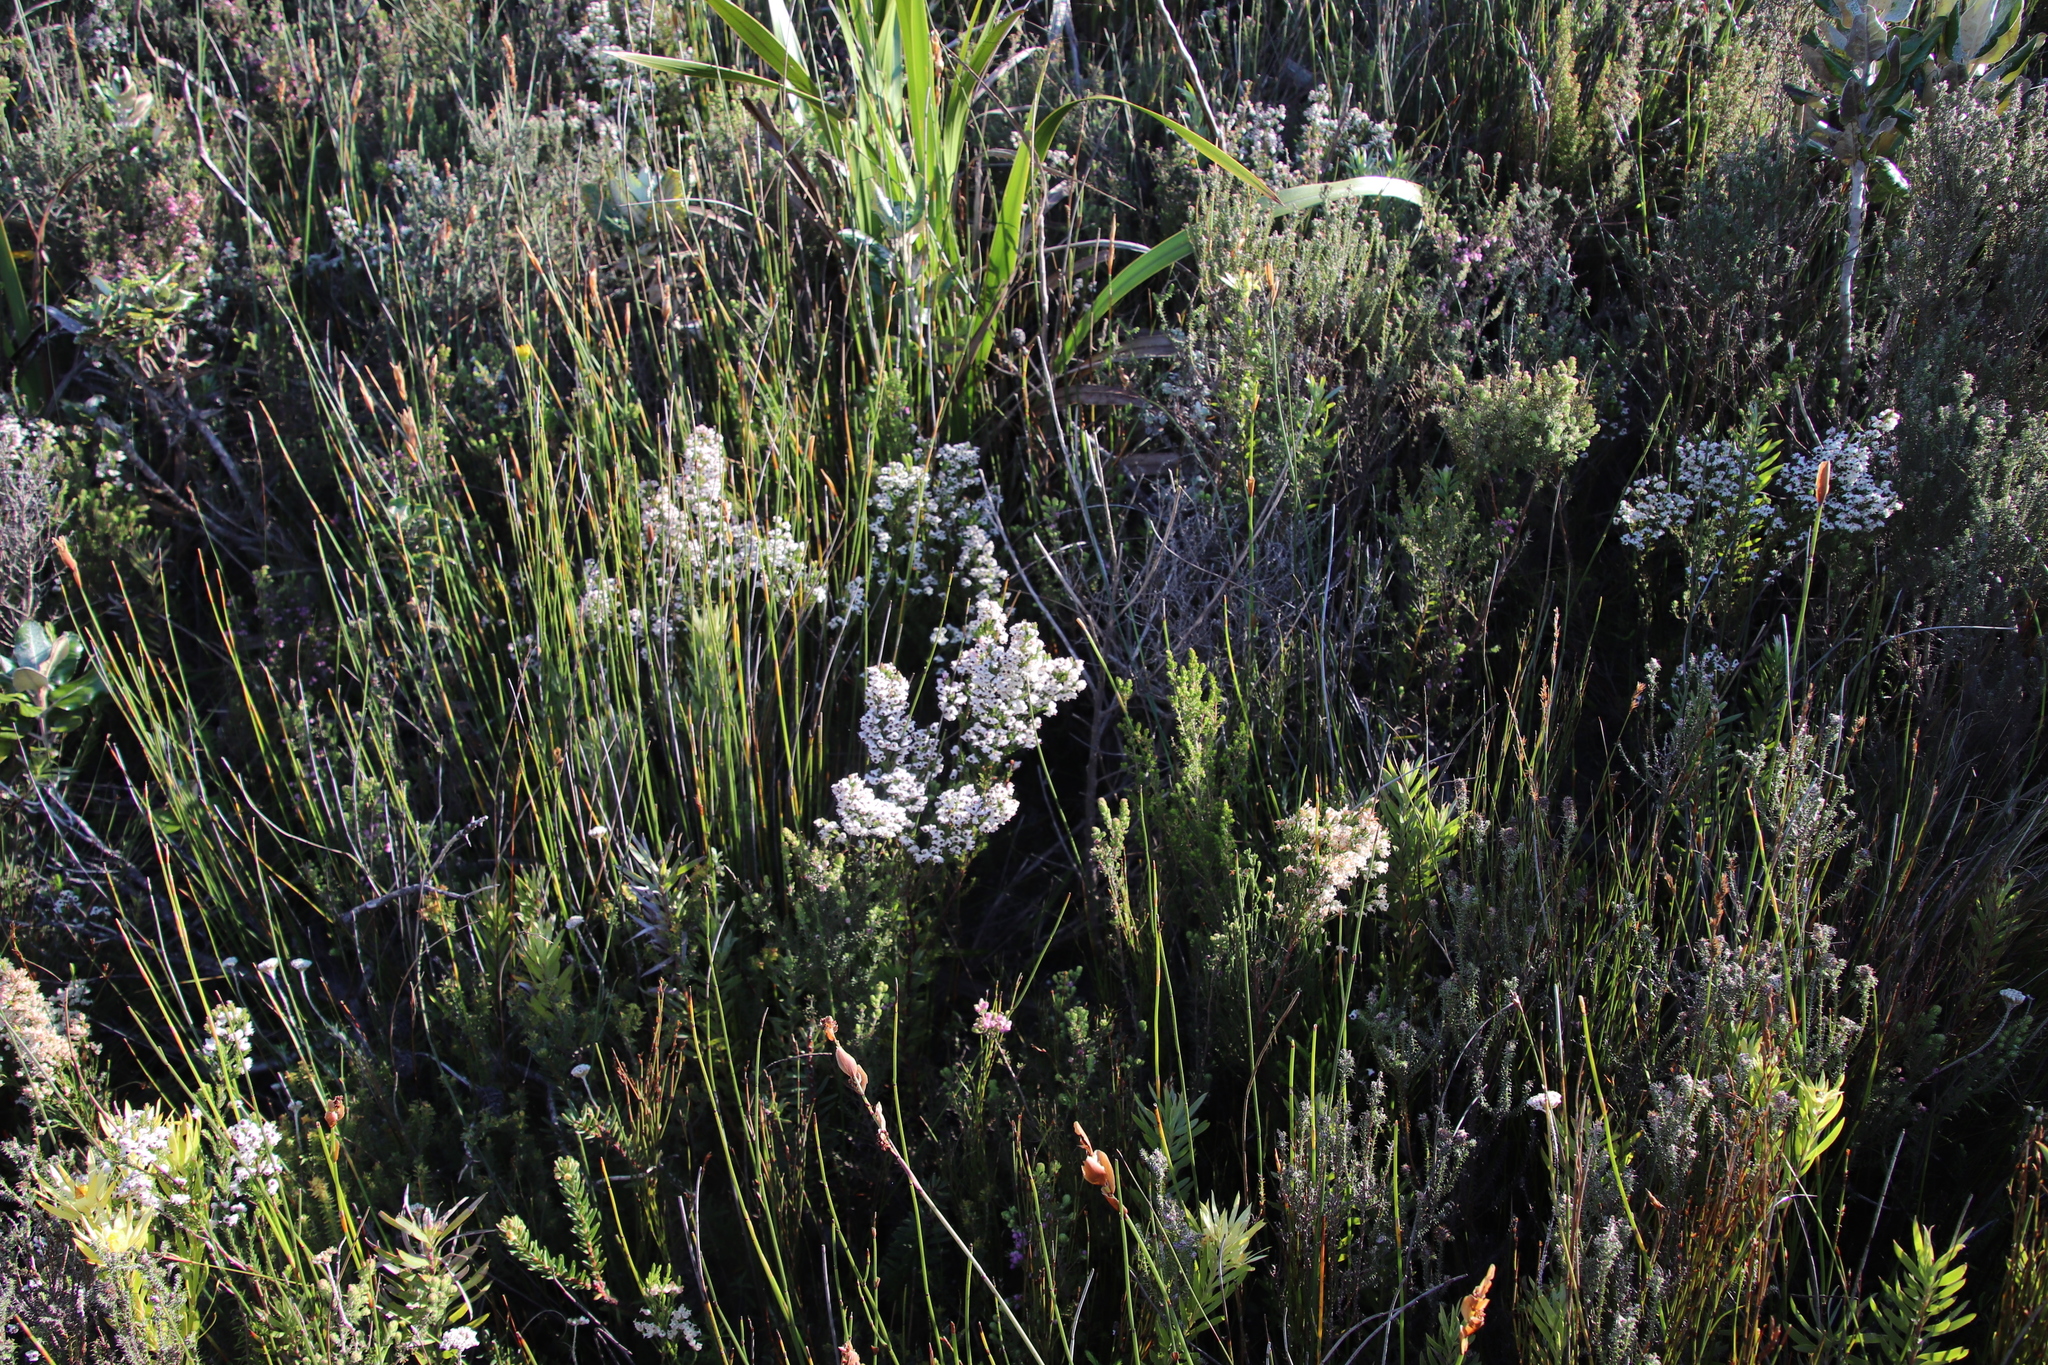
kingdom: Plantae
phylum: Tracheophyta
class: Magnoliopsida
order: Ericales
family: Ericaceae
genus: Erica
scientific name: Erica calycina
